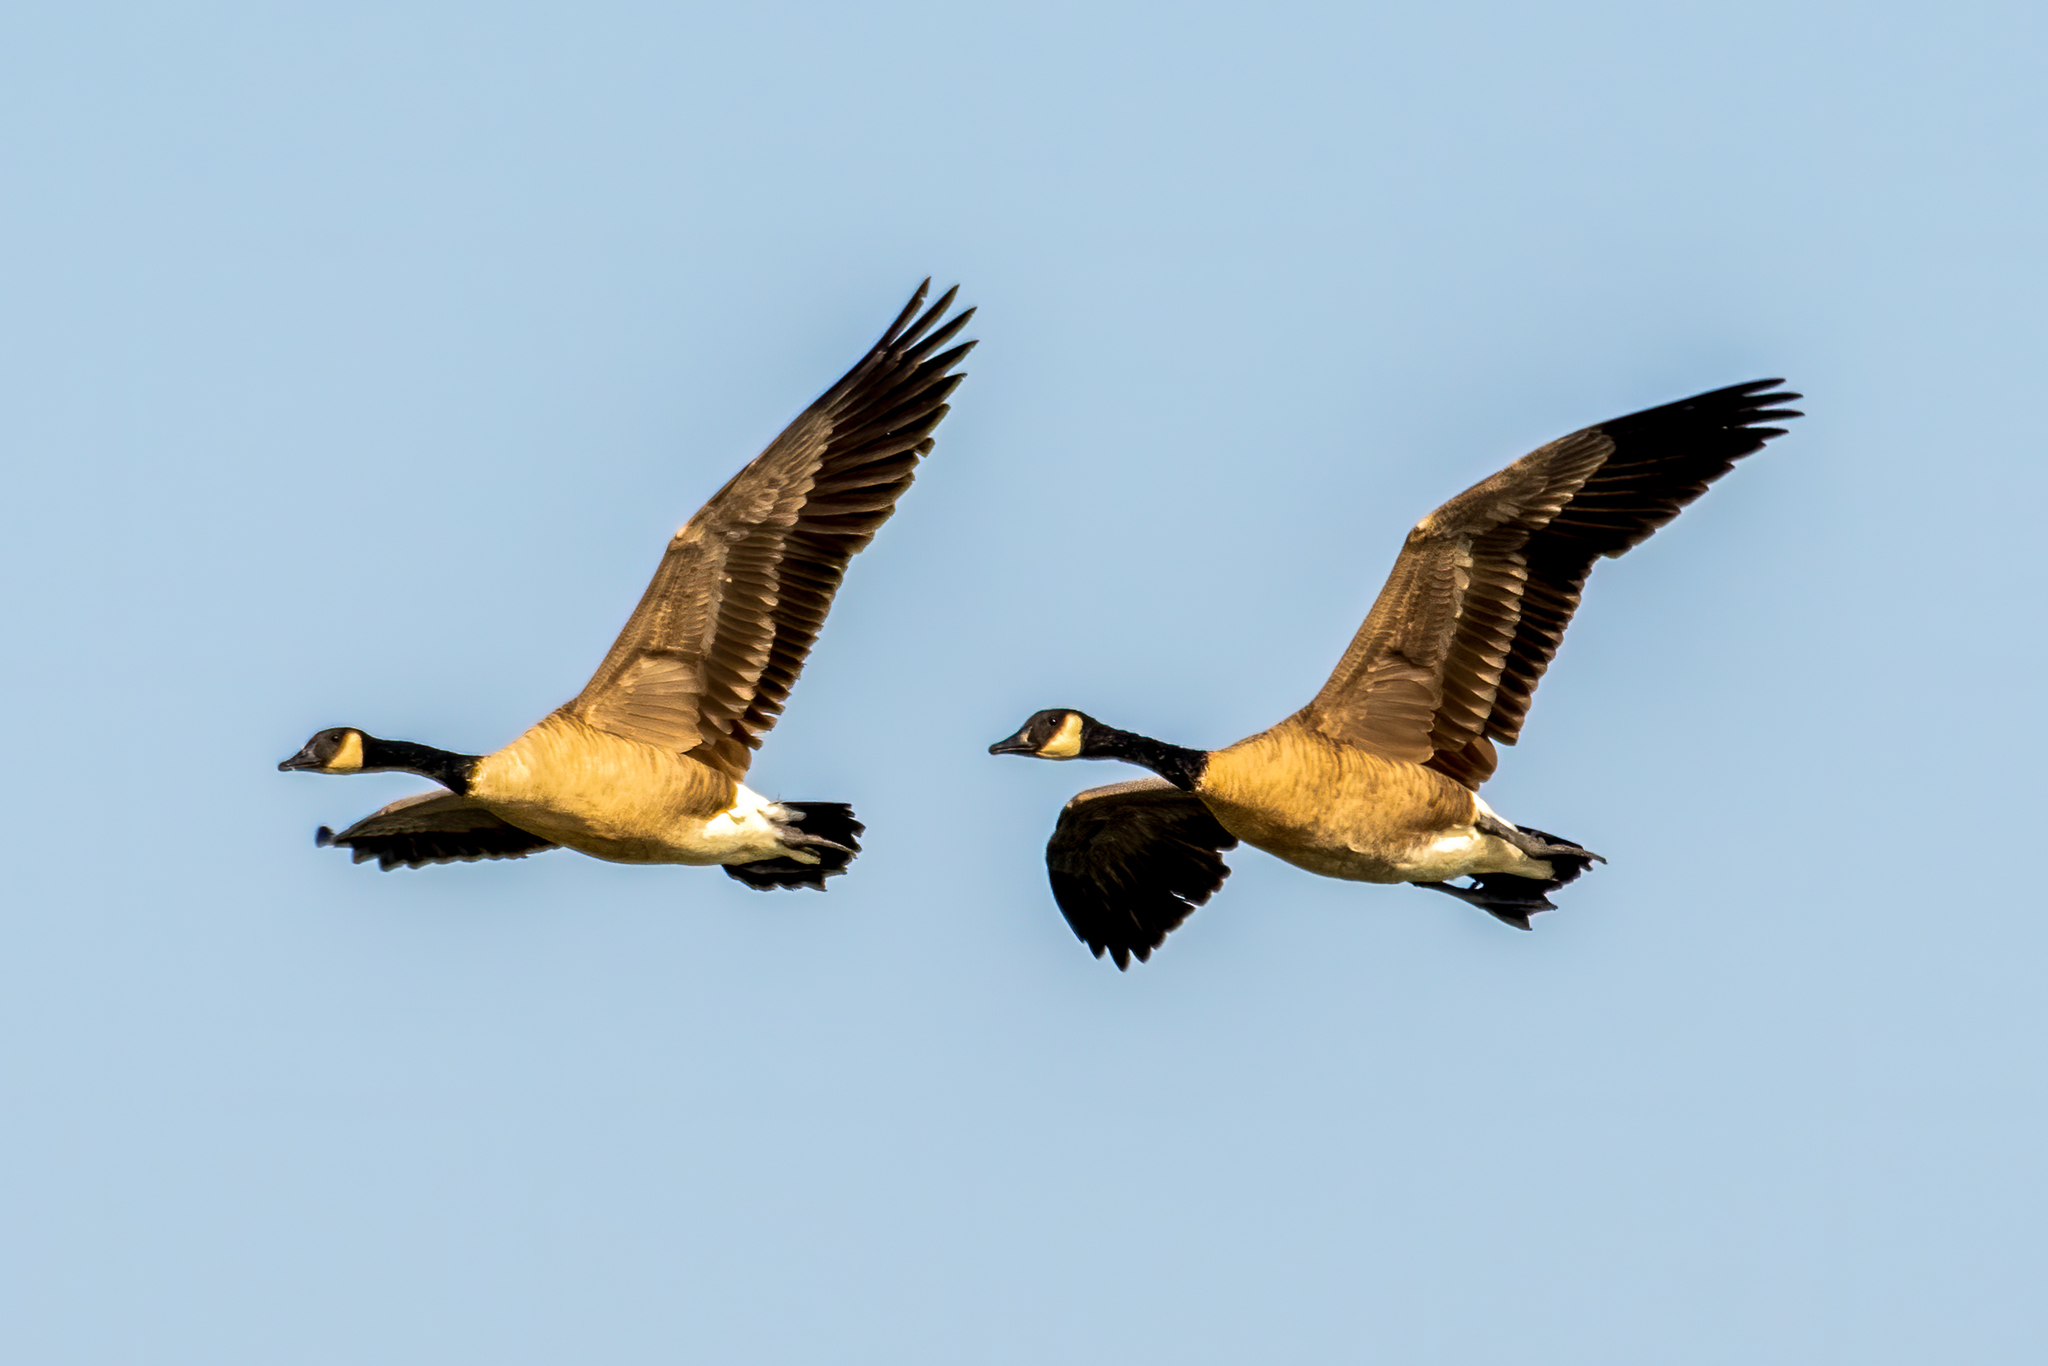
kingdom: Animalia
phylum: Chordata
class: Aves
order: Anseriformes
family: Anatidae
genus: Branta
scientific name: Branta canadensis
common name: Canada goose
